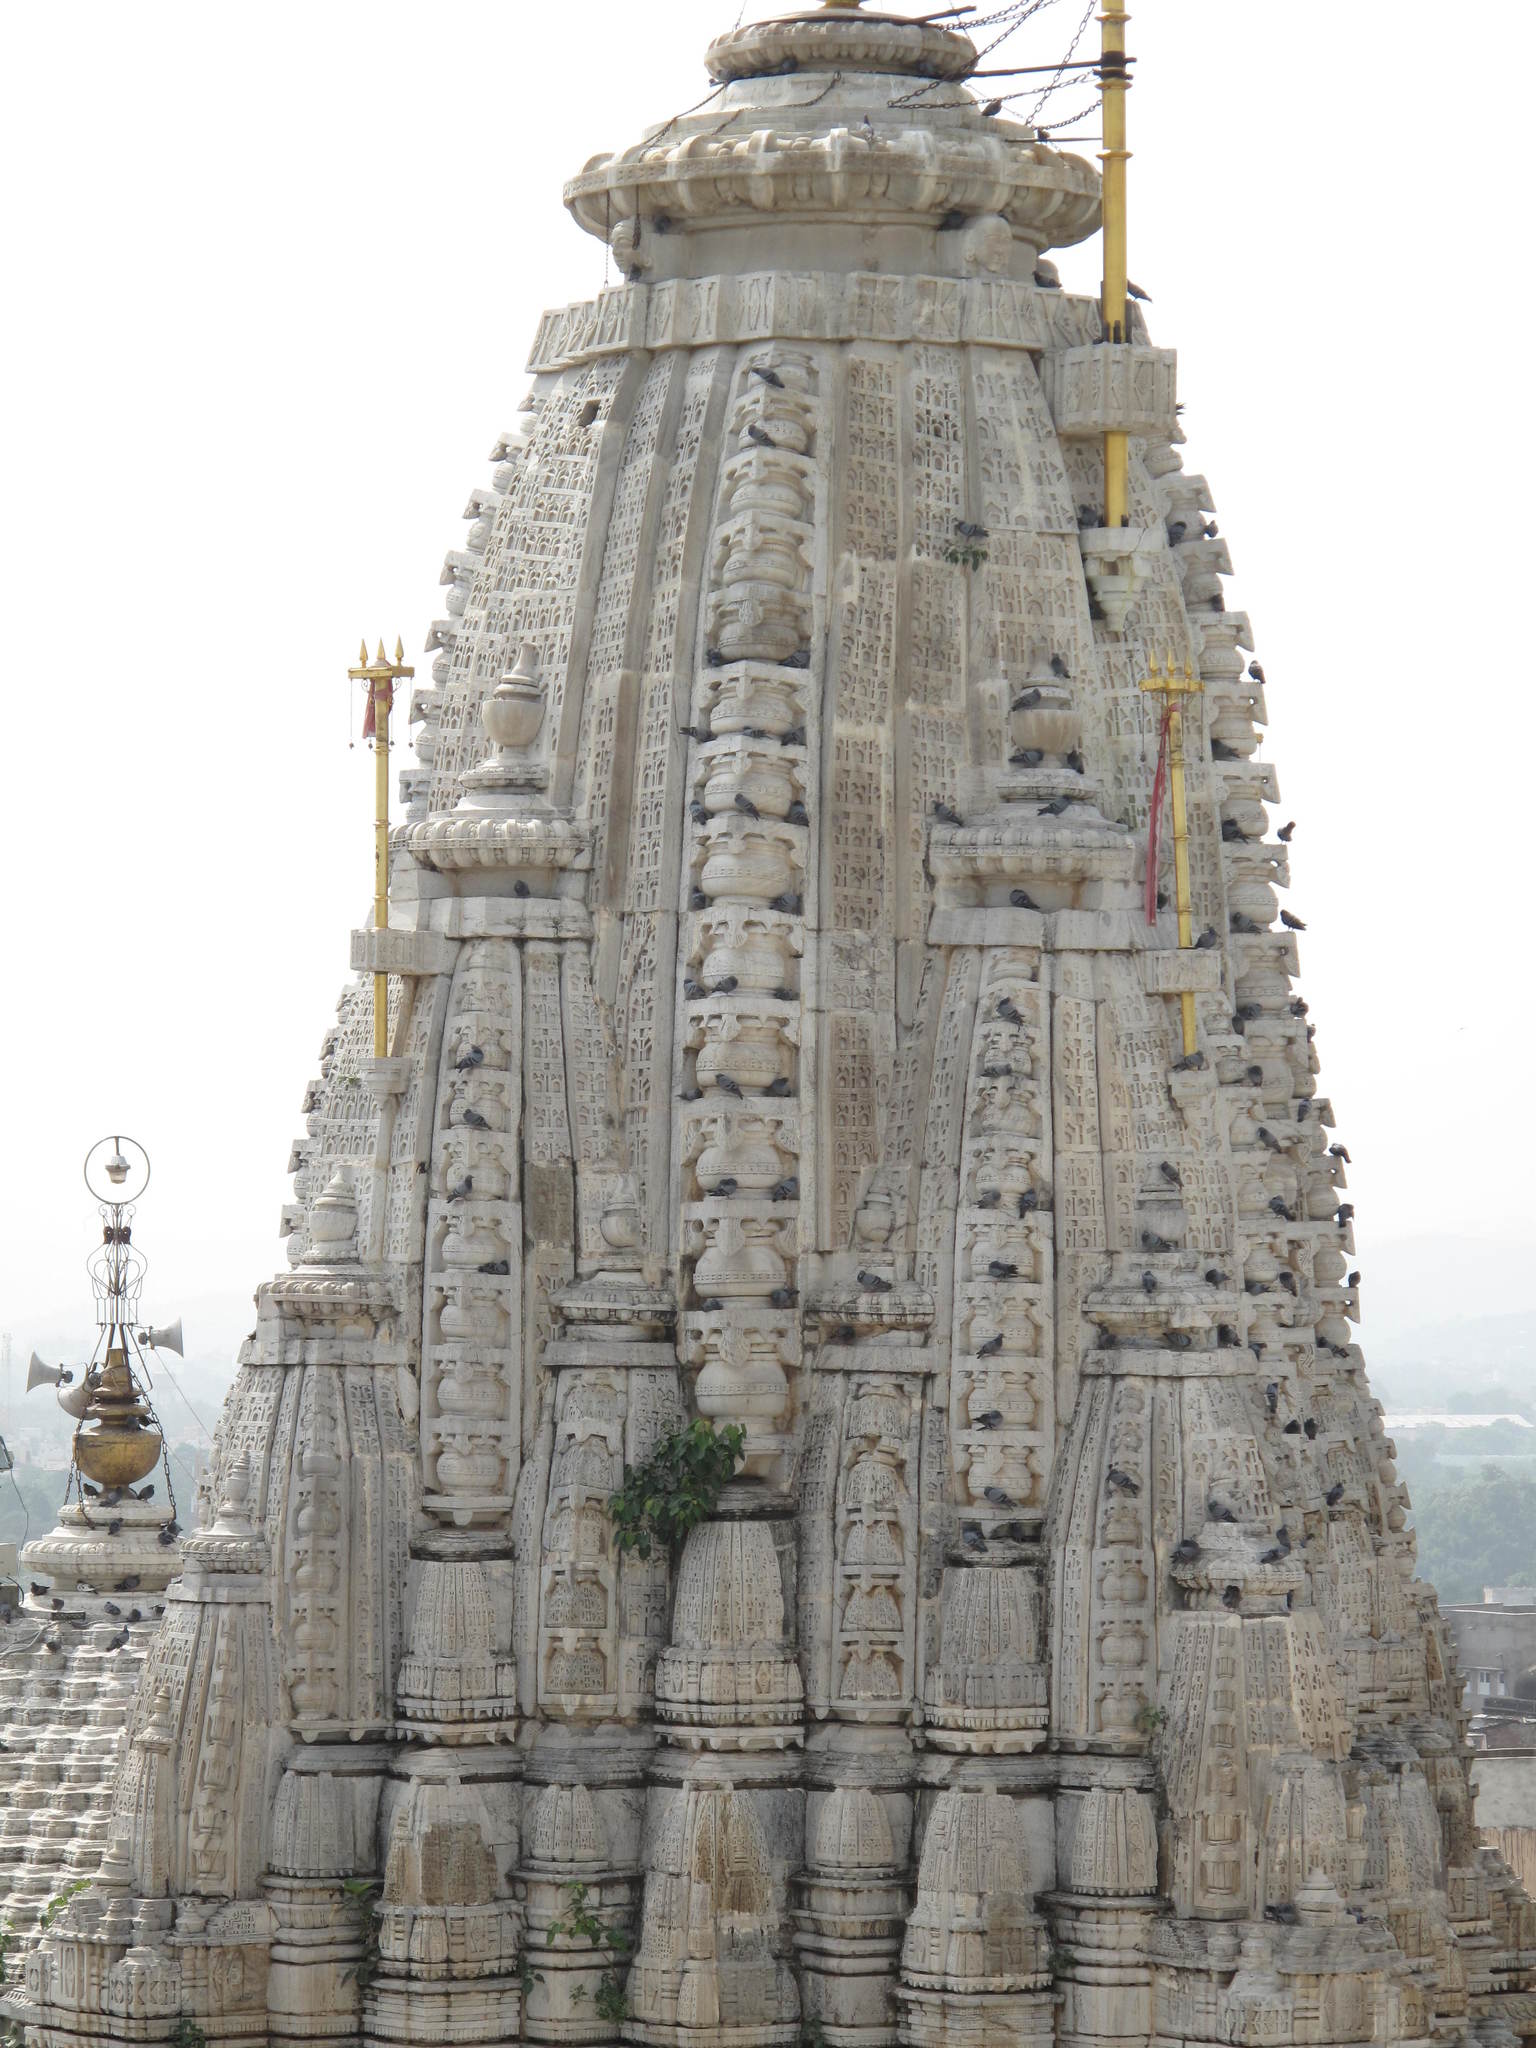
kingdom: Plantae
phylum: Tracheophyta
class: Magnoliopsida
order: Rosales
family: Moraceae
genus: Ficus
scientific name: Ficus religiosa
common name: Bodhi tree
